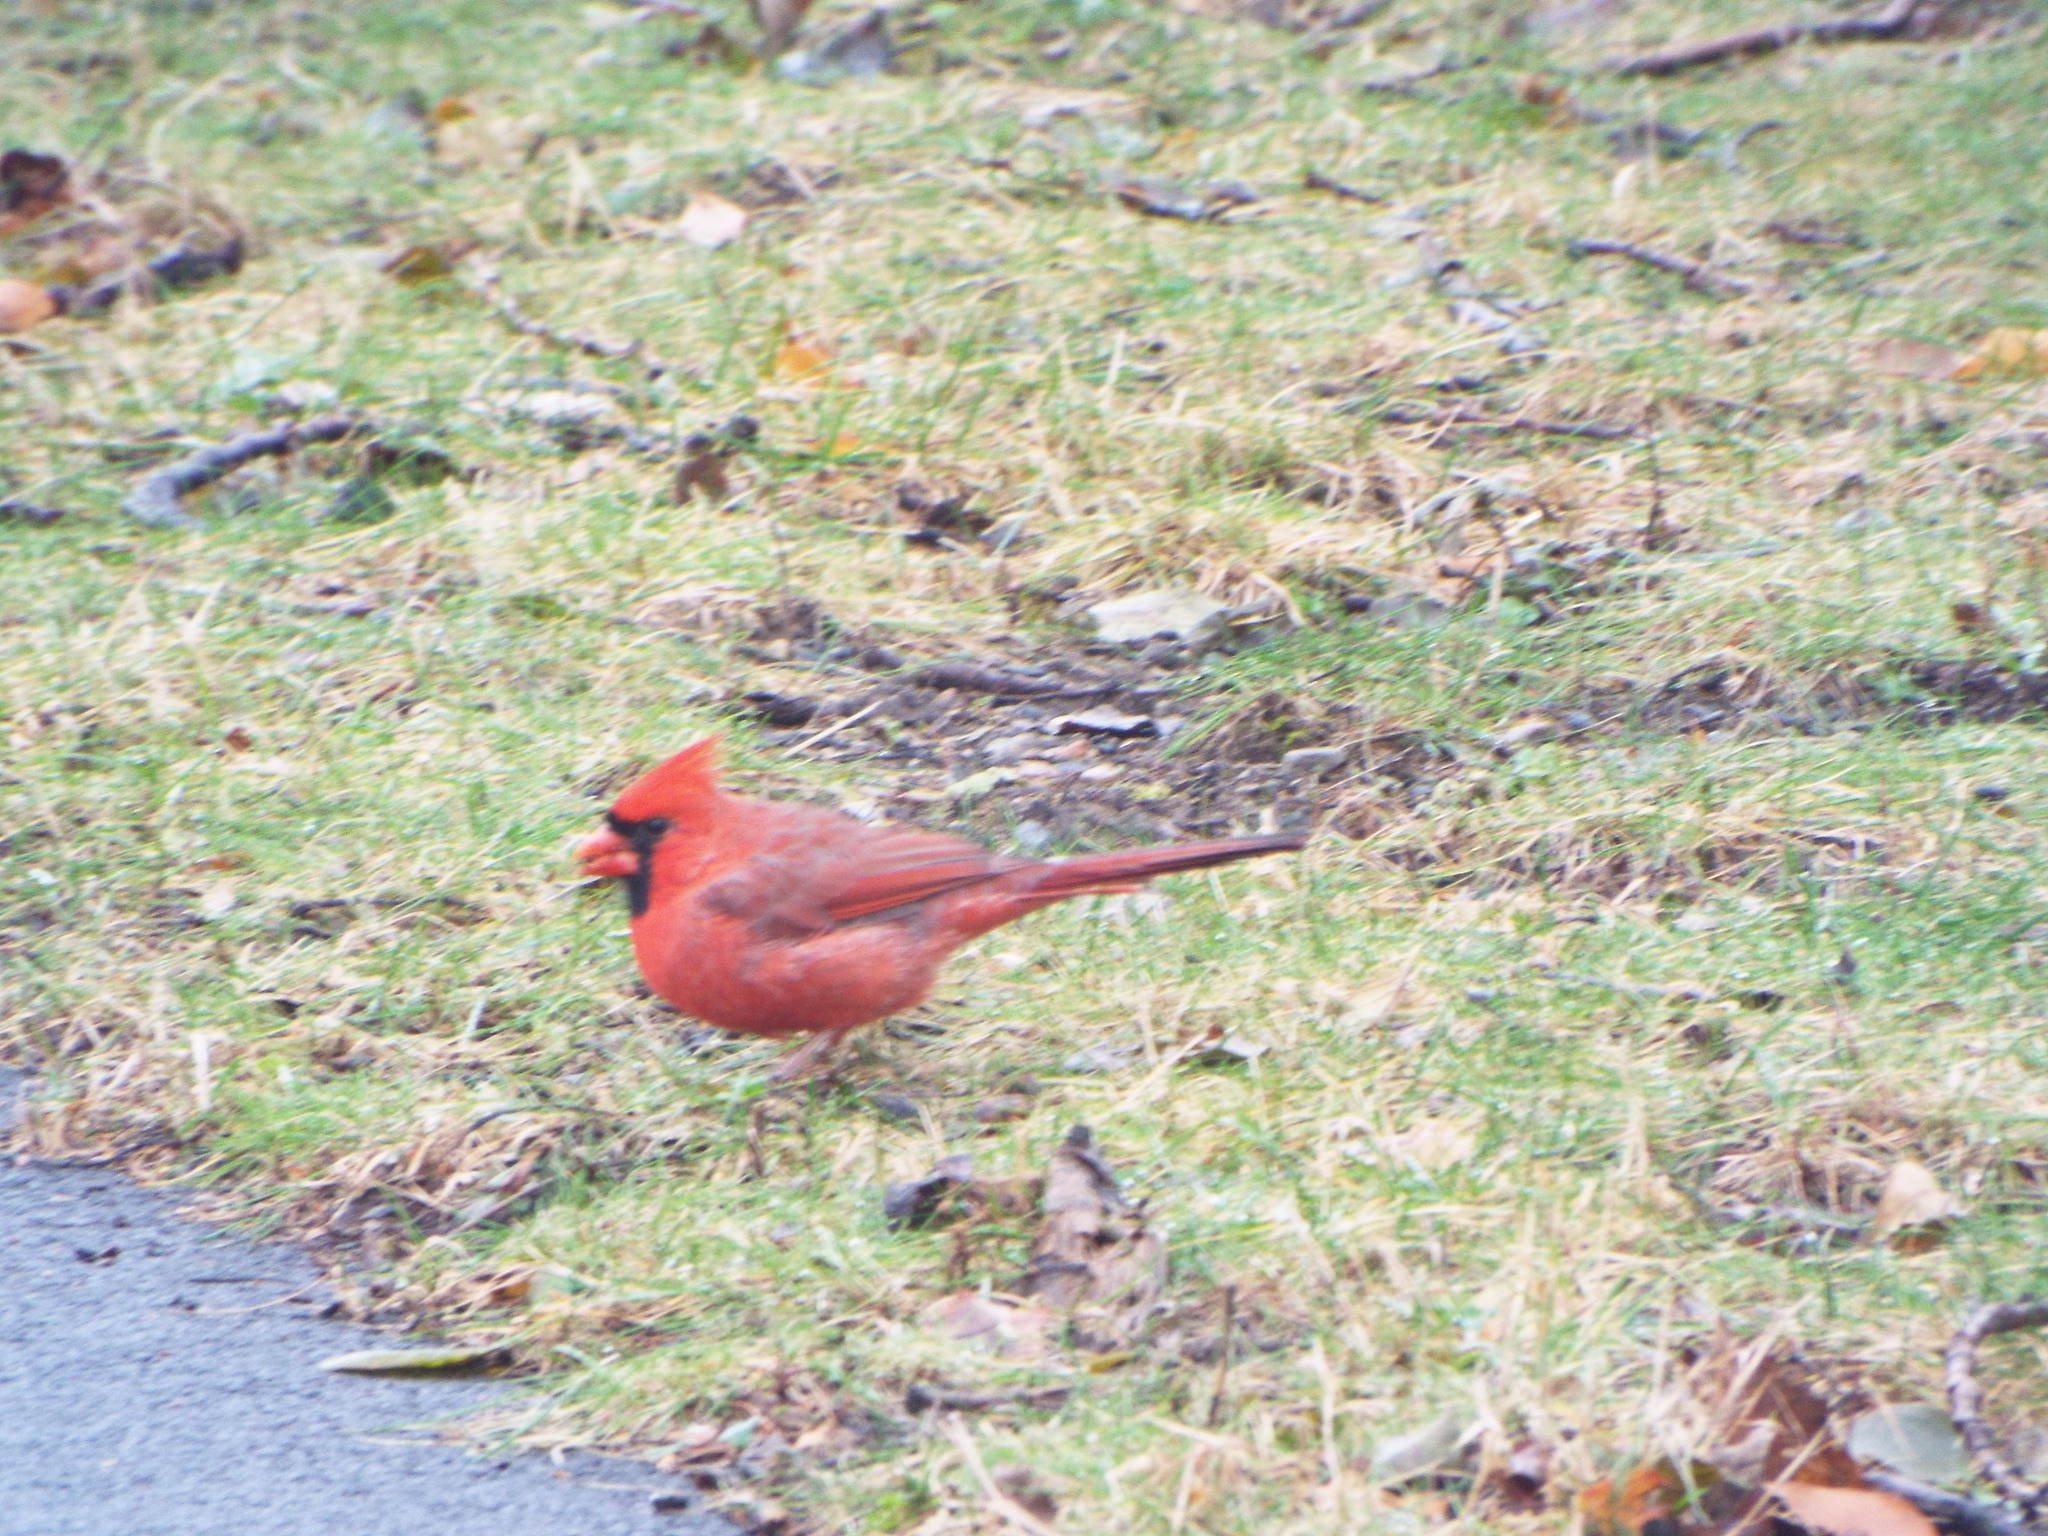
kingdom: Animalia
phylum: Chordata
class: Aves
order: Passeriformes
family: Cardinalidae
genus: Cardinalis
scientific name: Cardinalis cardinalis
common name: Northern cardinal
